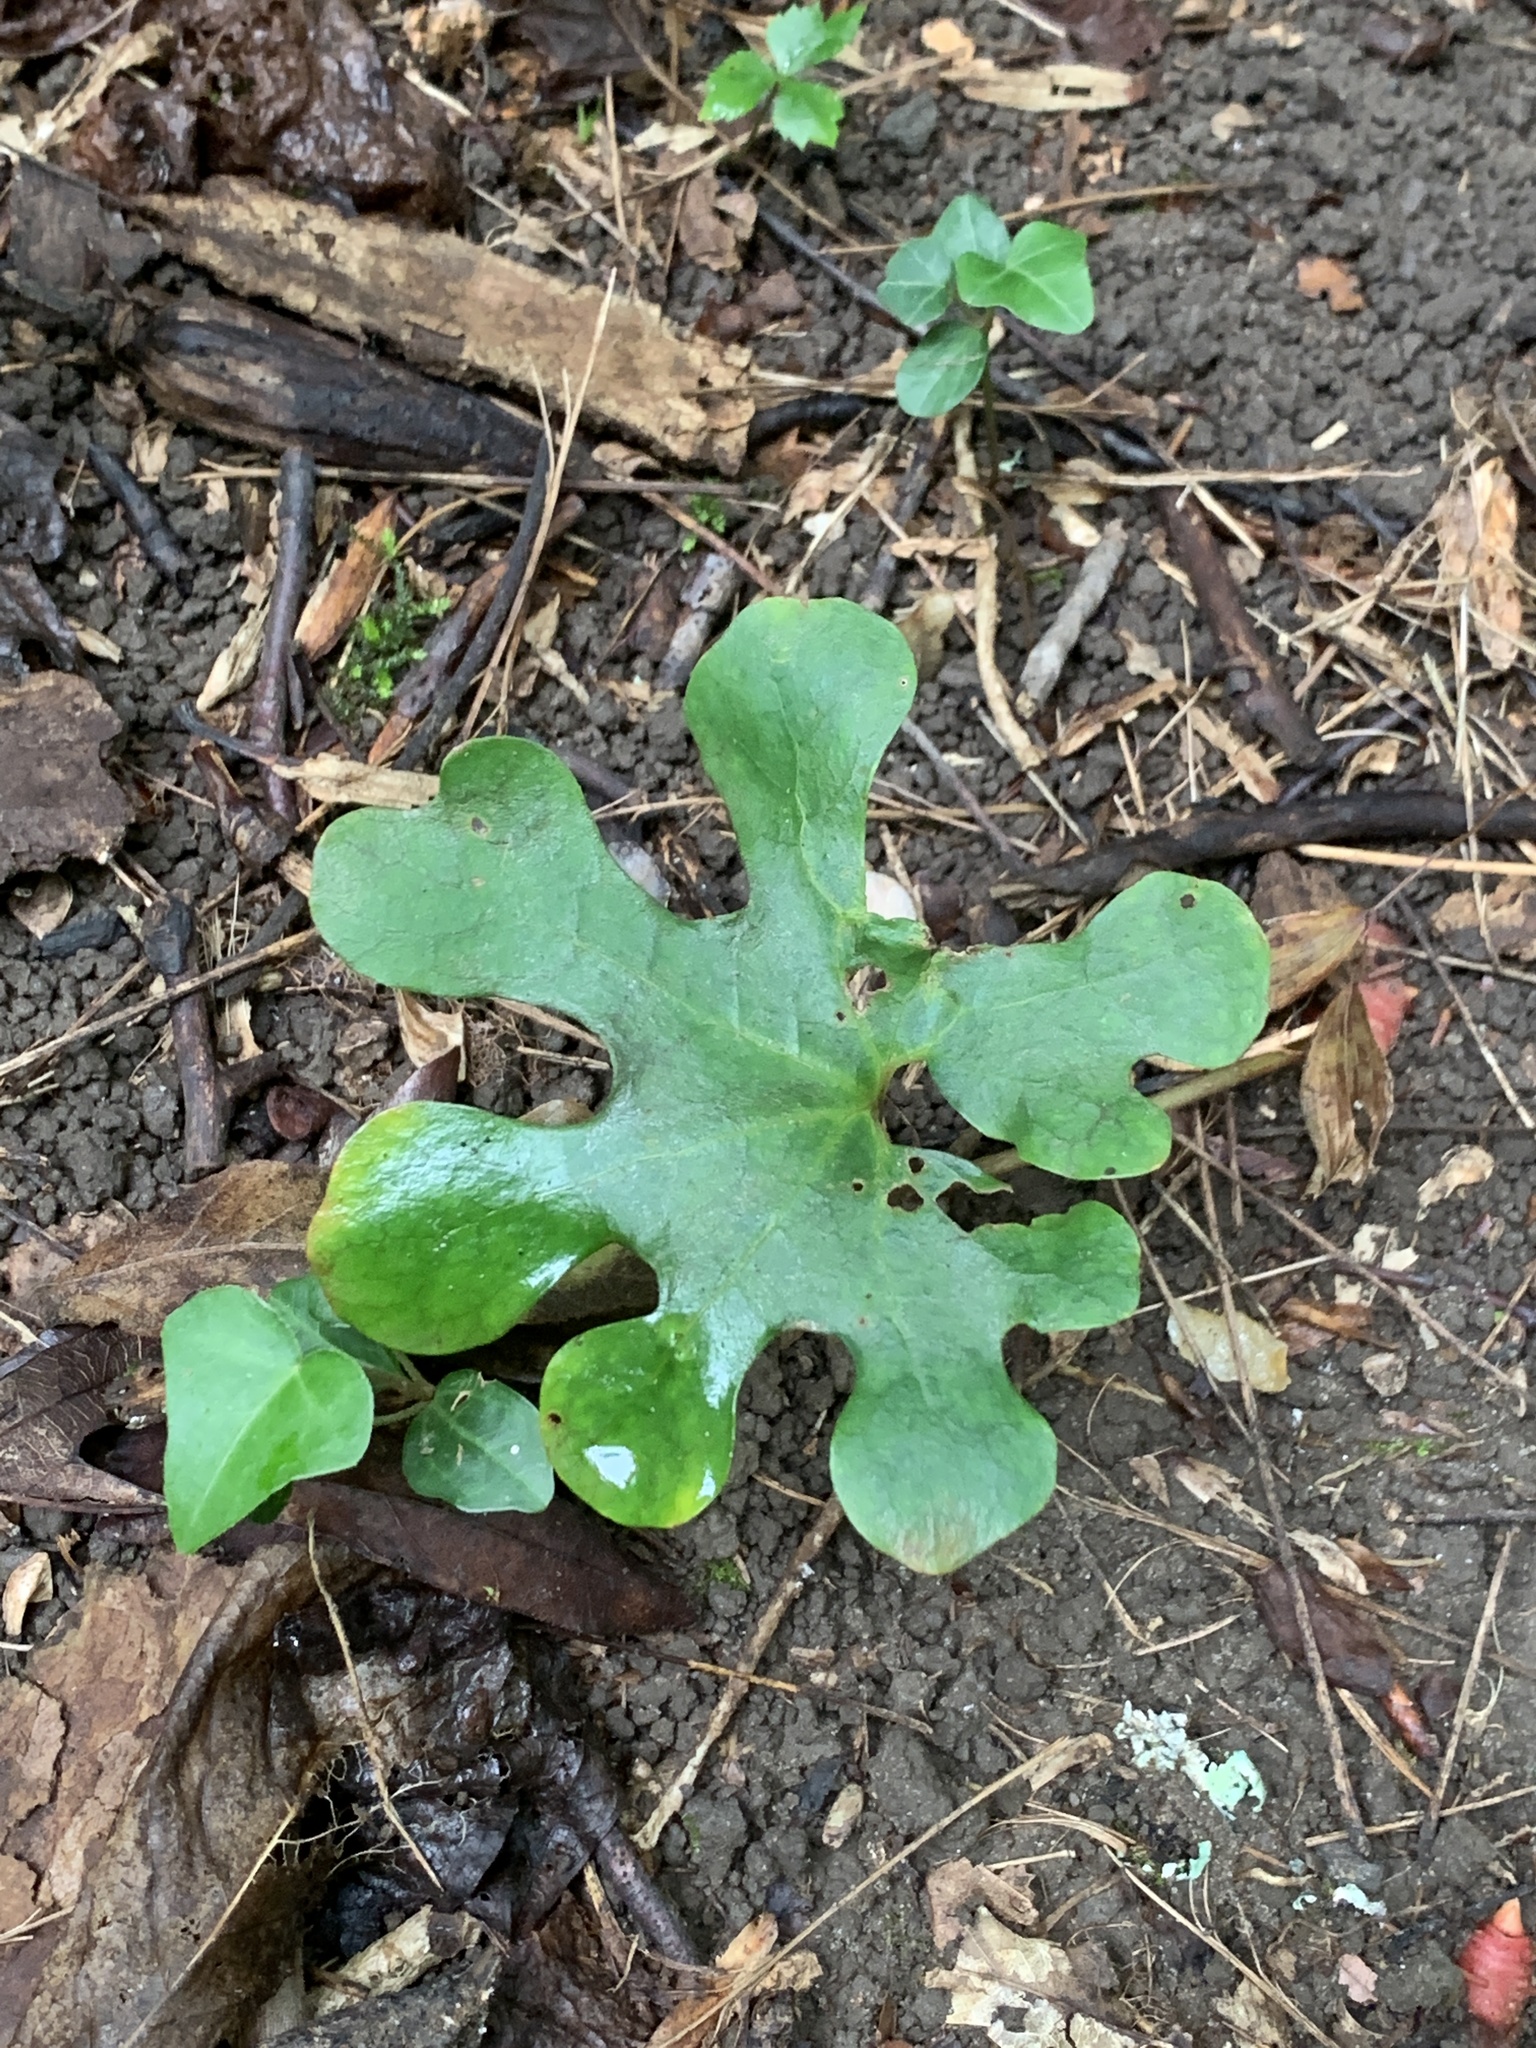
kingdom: Plantae
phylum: Tracheophyta
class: Magnoliopsida
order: Ranunculales
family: Papaveraceae
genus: Sanguinaria
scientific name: Sanguinaria canadensis
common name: Bloodroot
